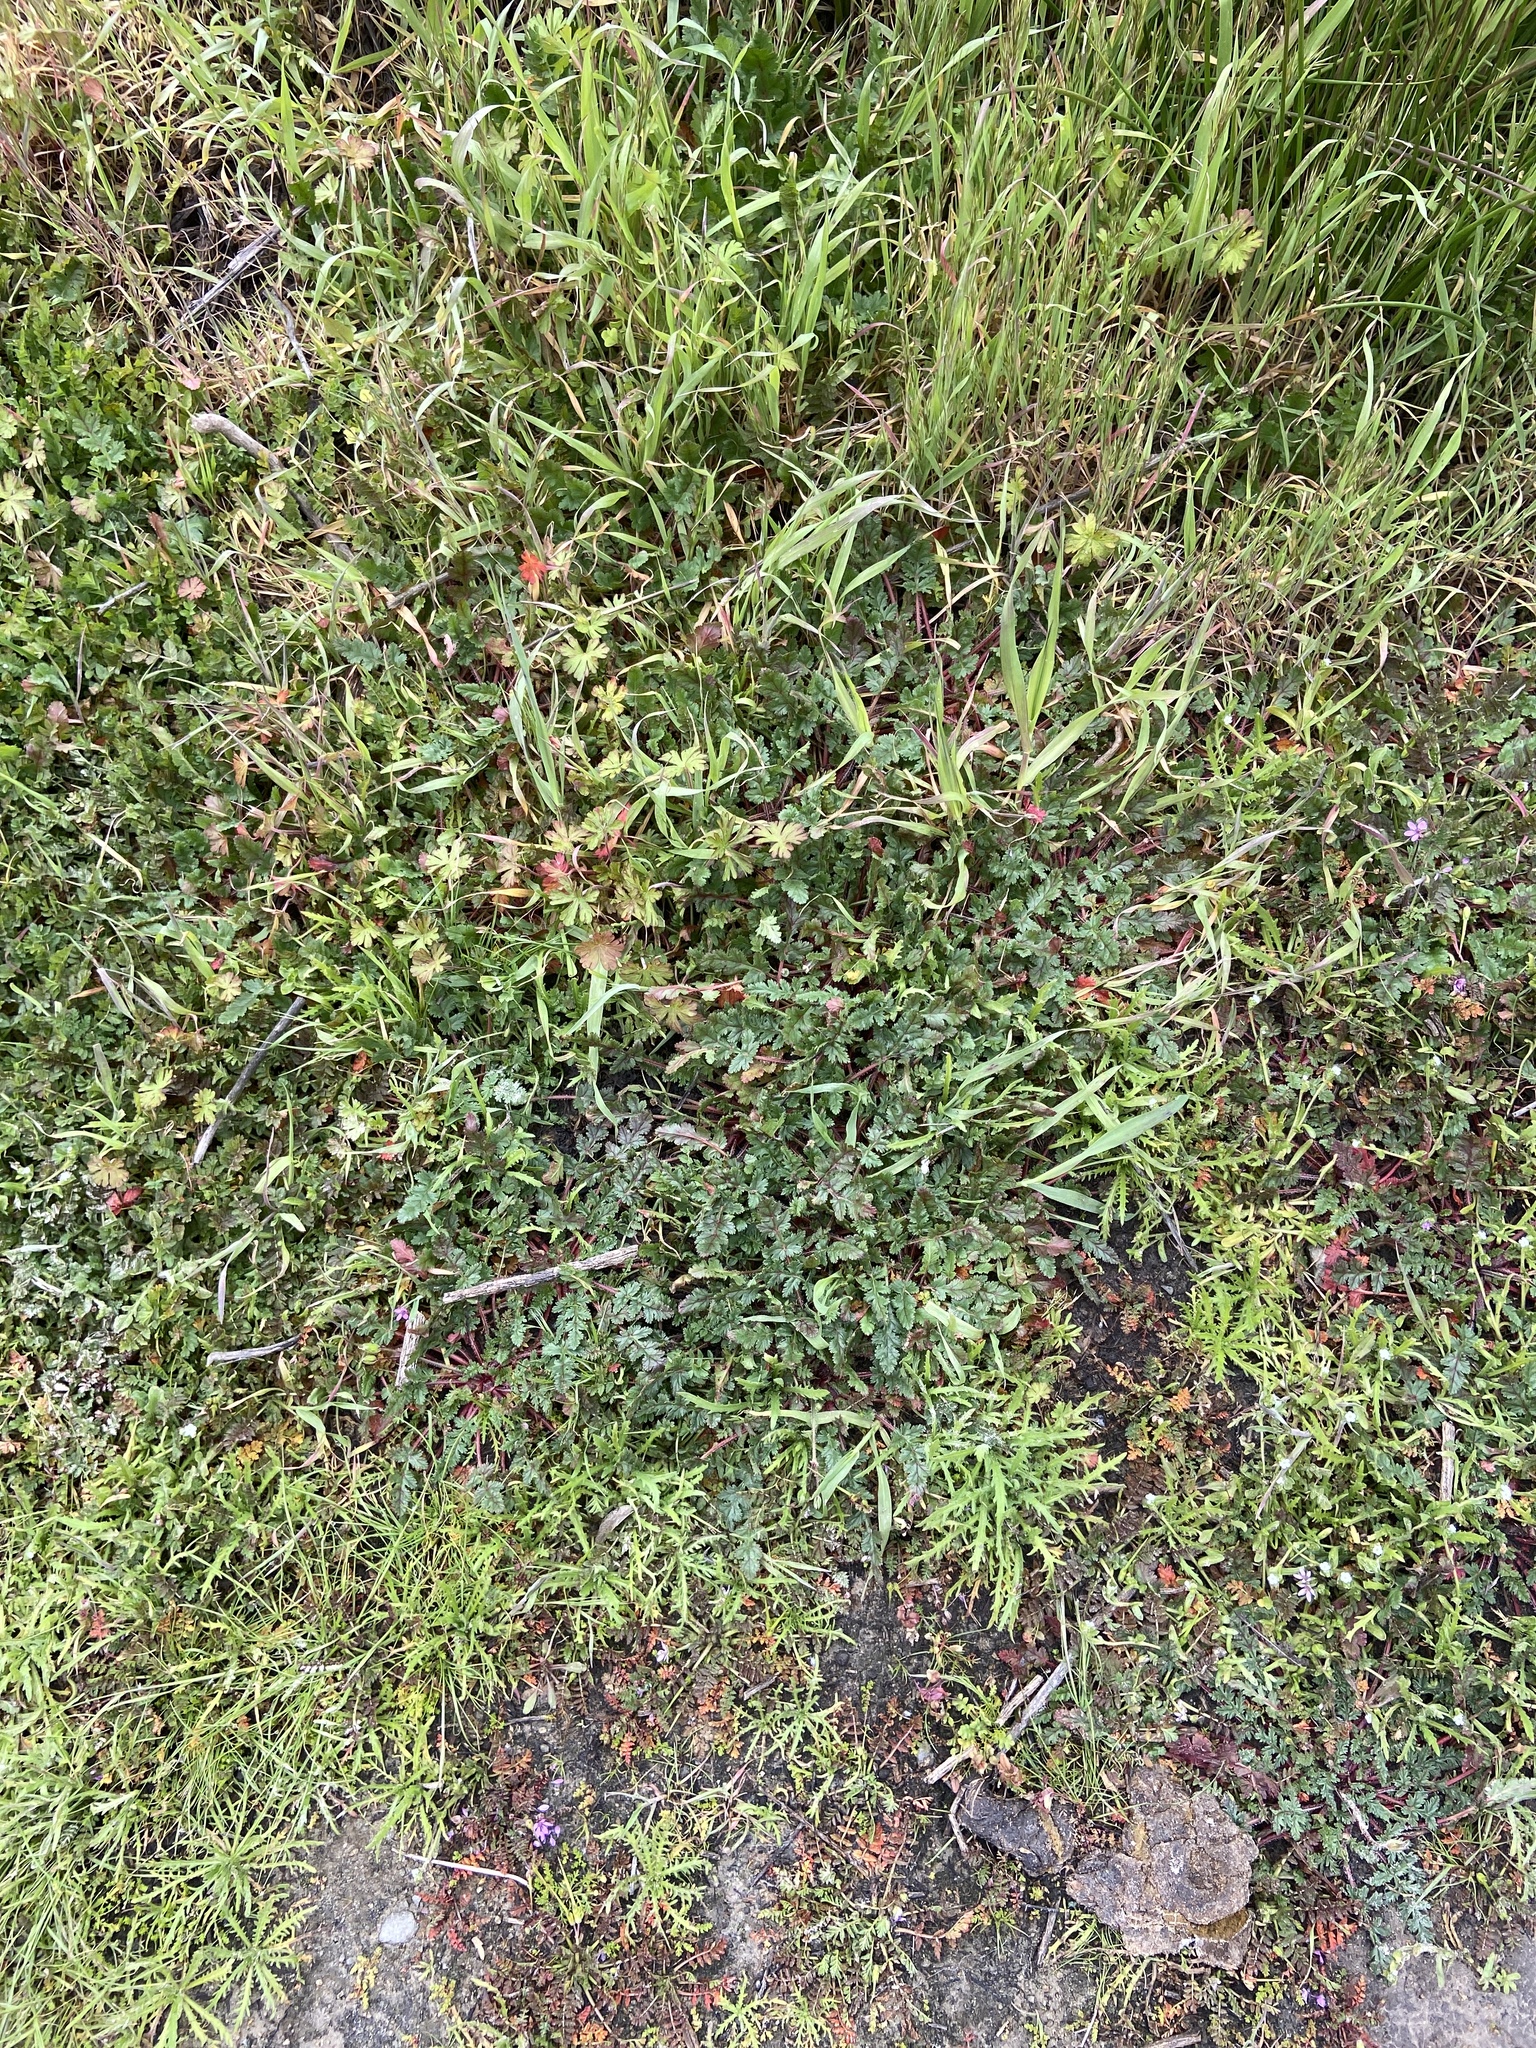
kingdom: Plantae
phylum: Tracheophyta
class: Magnoliopsida
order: Geraniales
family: Geraniaceae
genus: Erodium
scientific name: Erodium
